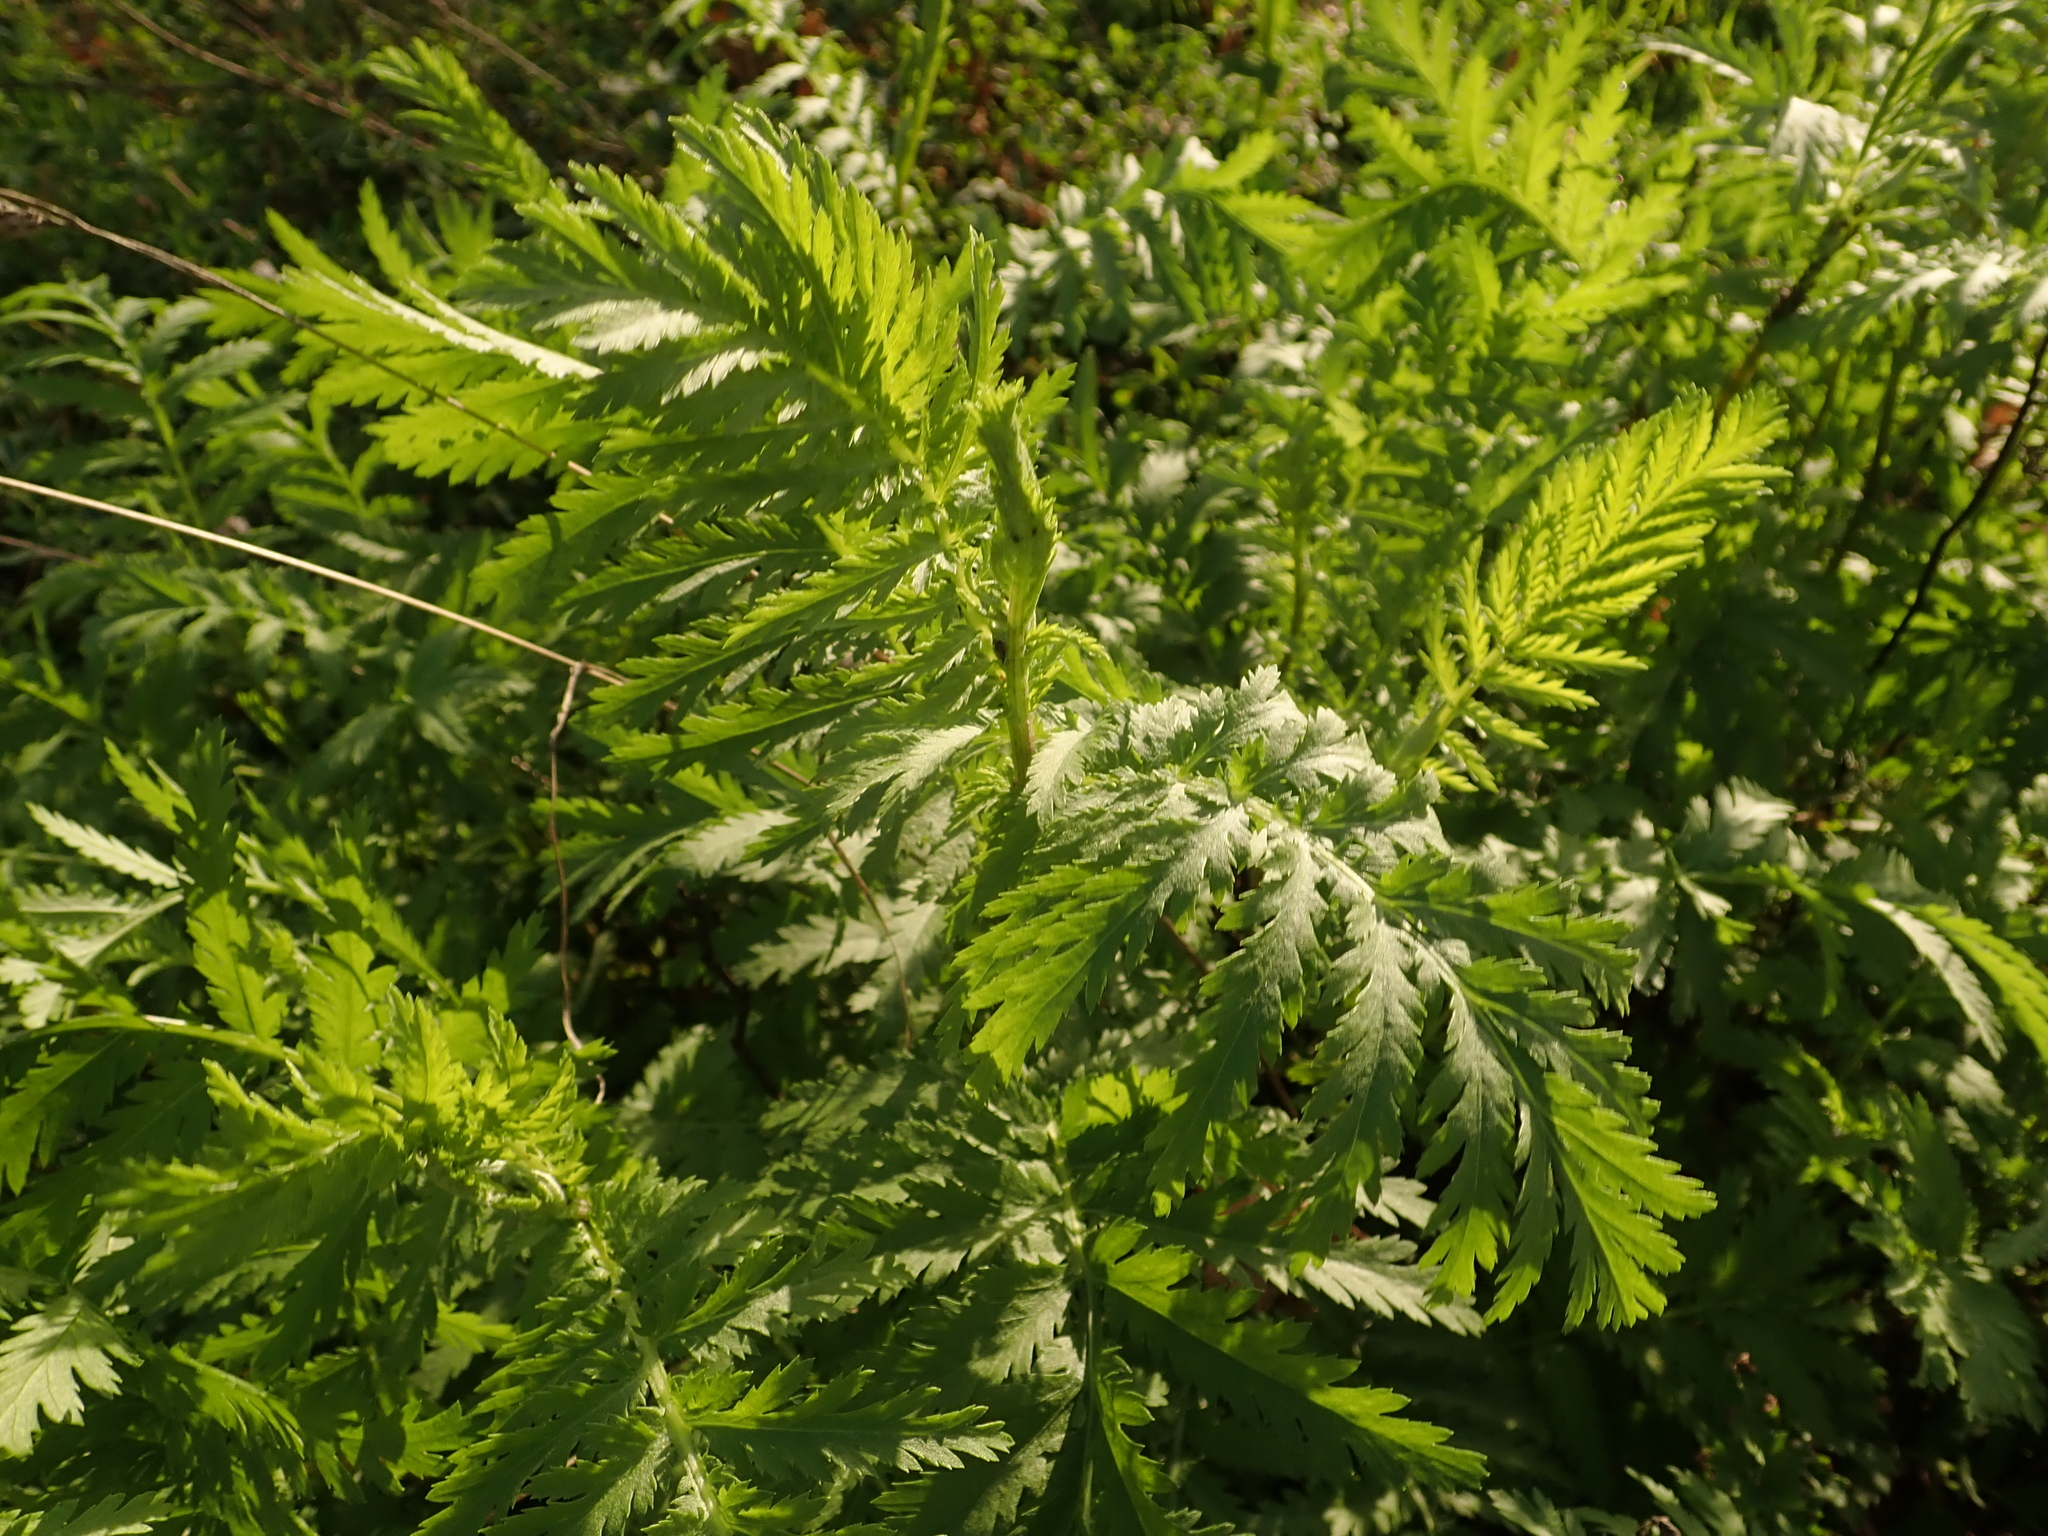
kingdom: Plantae
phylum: Tracheophyta
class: Magnoliopsida
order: Asterales
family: Asteraceae
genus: Tanacetum
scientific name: Tanacetum vulgare
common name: Common tansy
